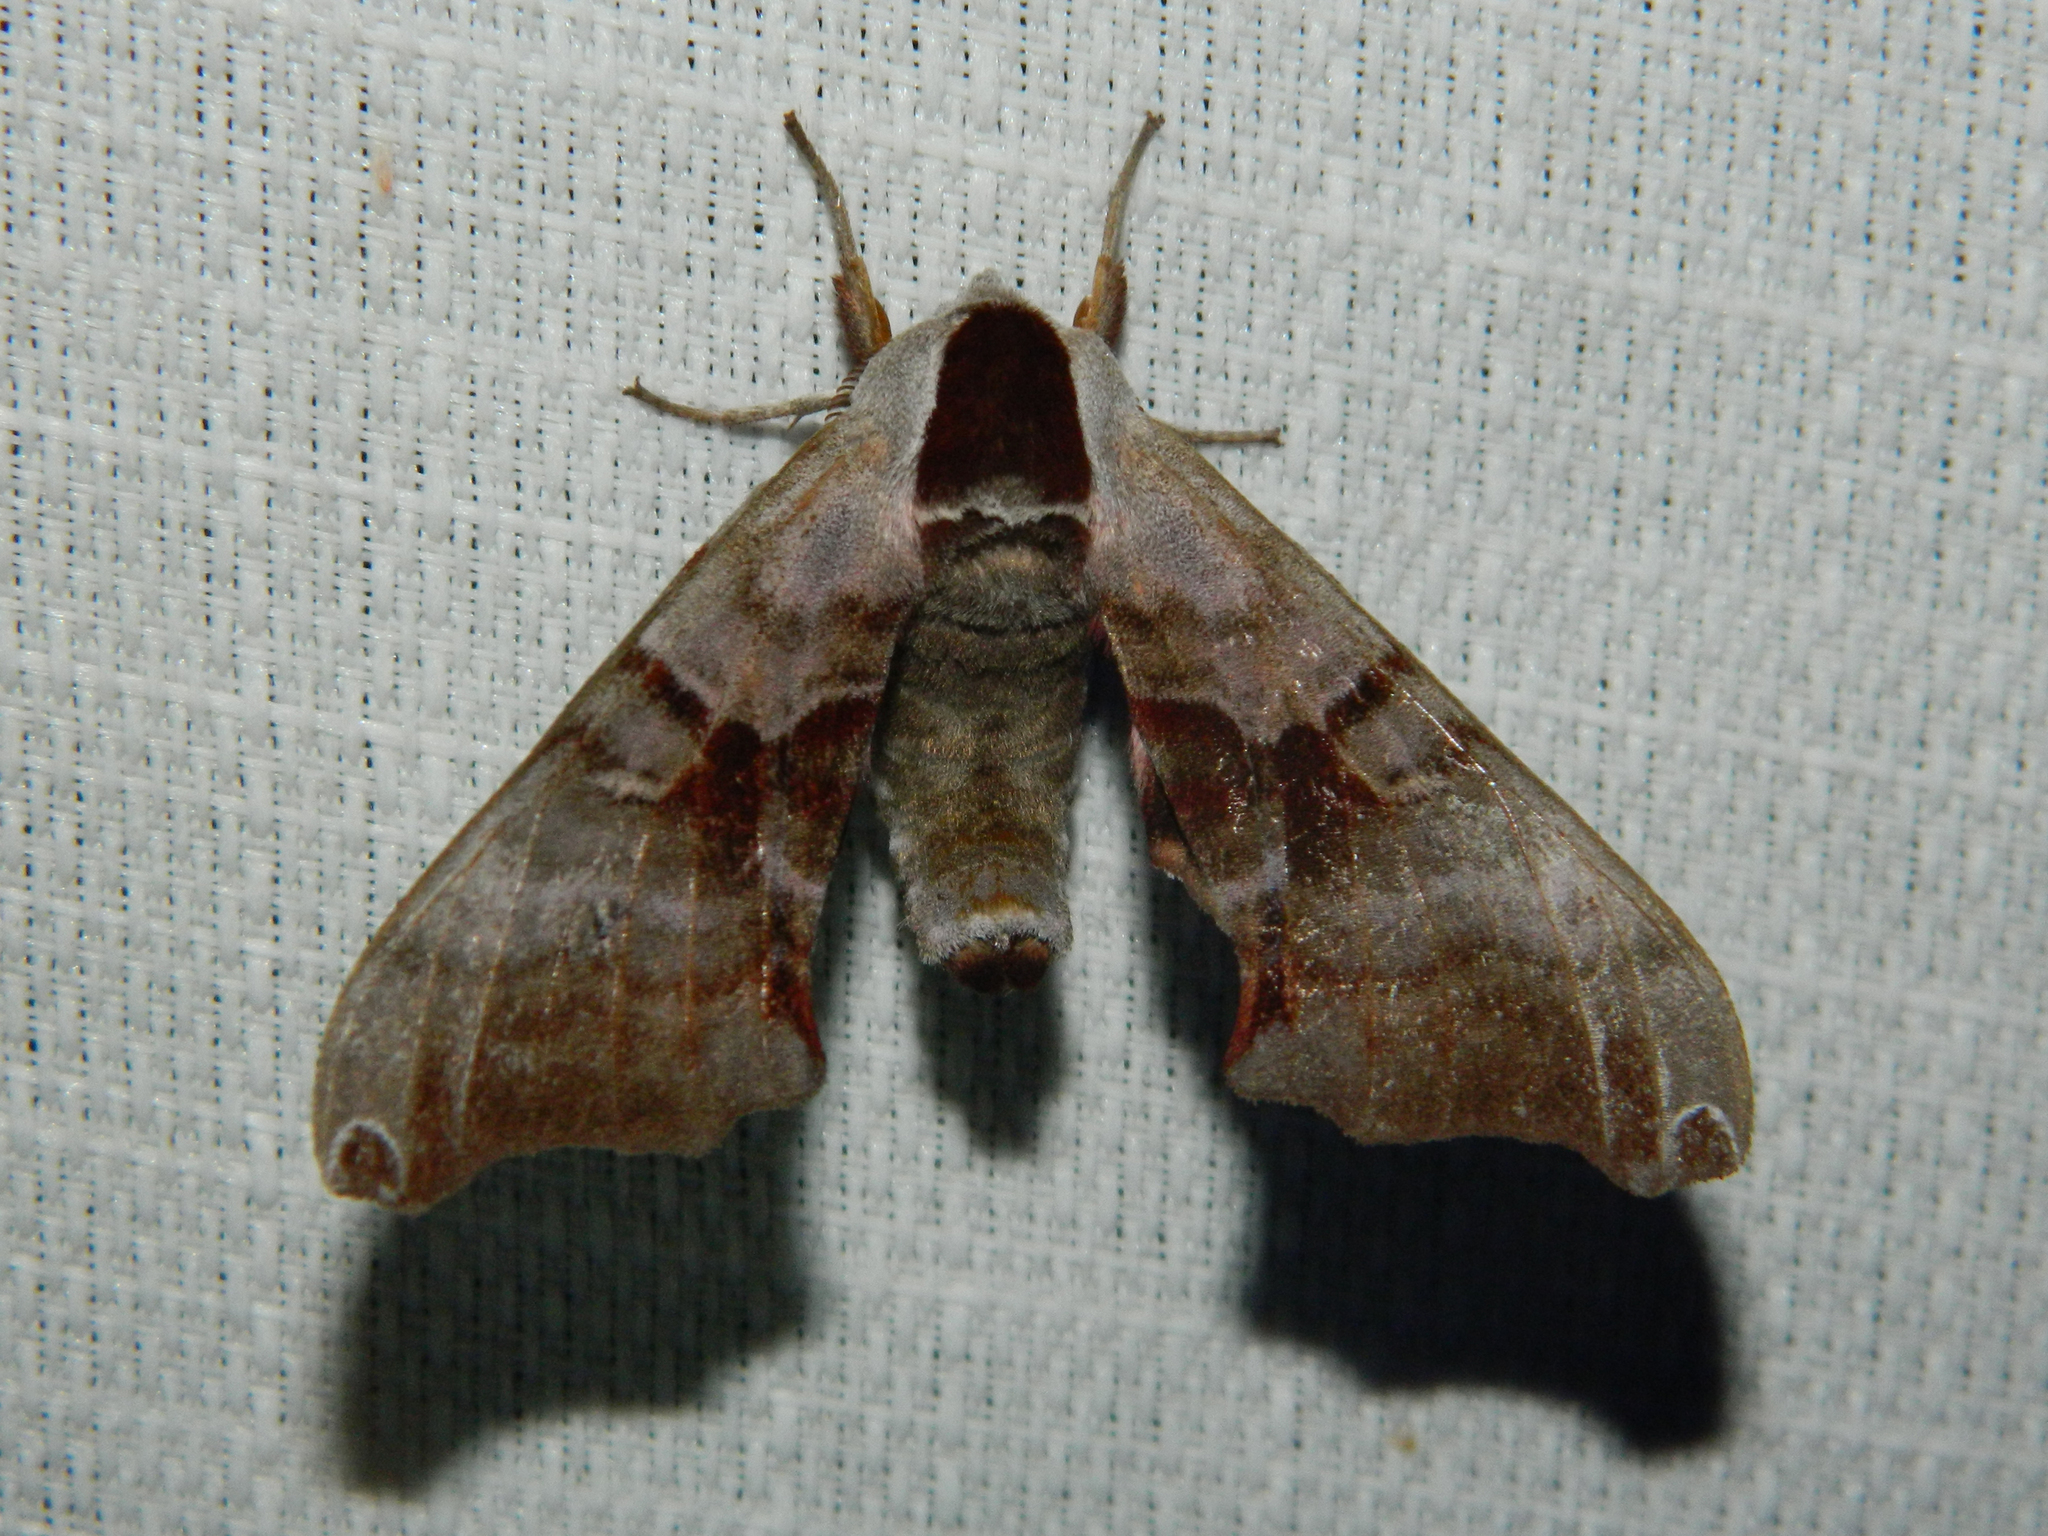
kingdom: Animalia
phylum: Arthropoda
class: Insecta
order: Lepidoptera
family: Sphingidae
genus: Smerinthus
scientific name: Smerinthus jamaicensis
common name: Twin spotted sphinx
